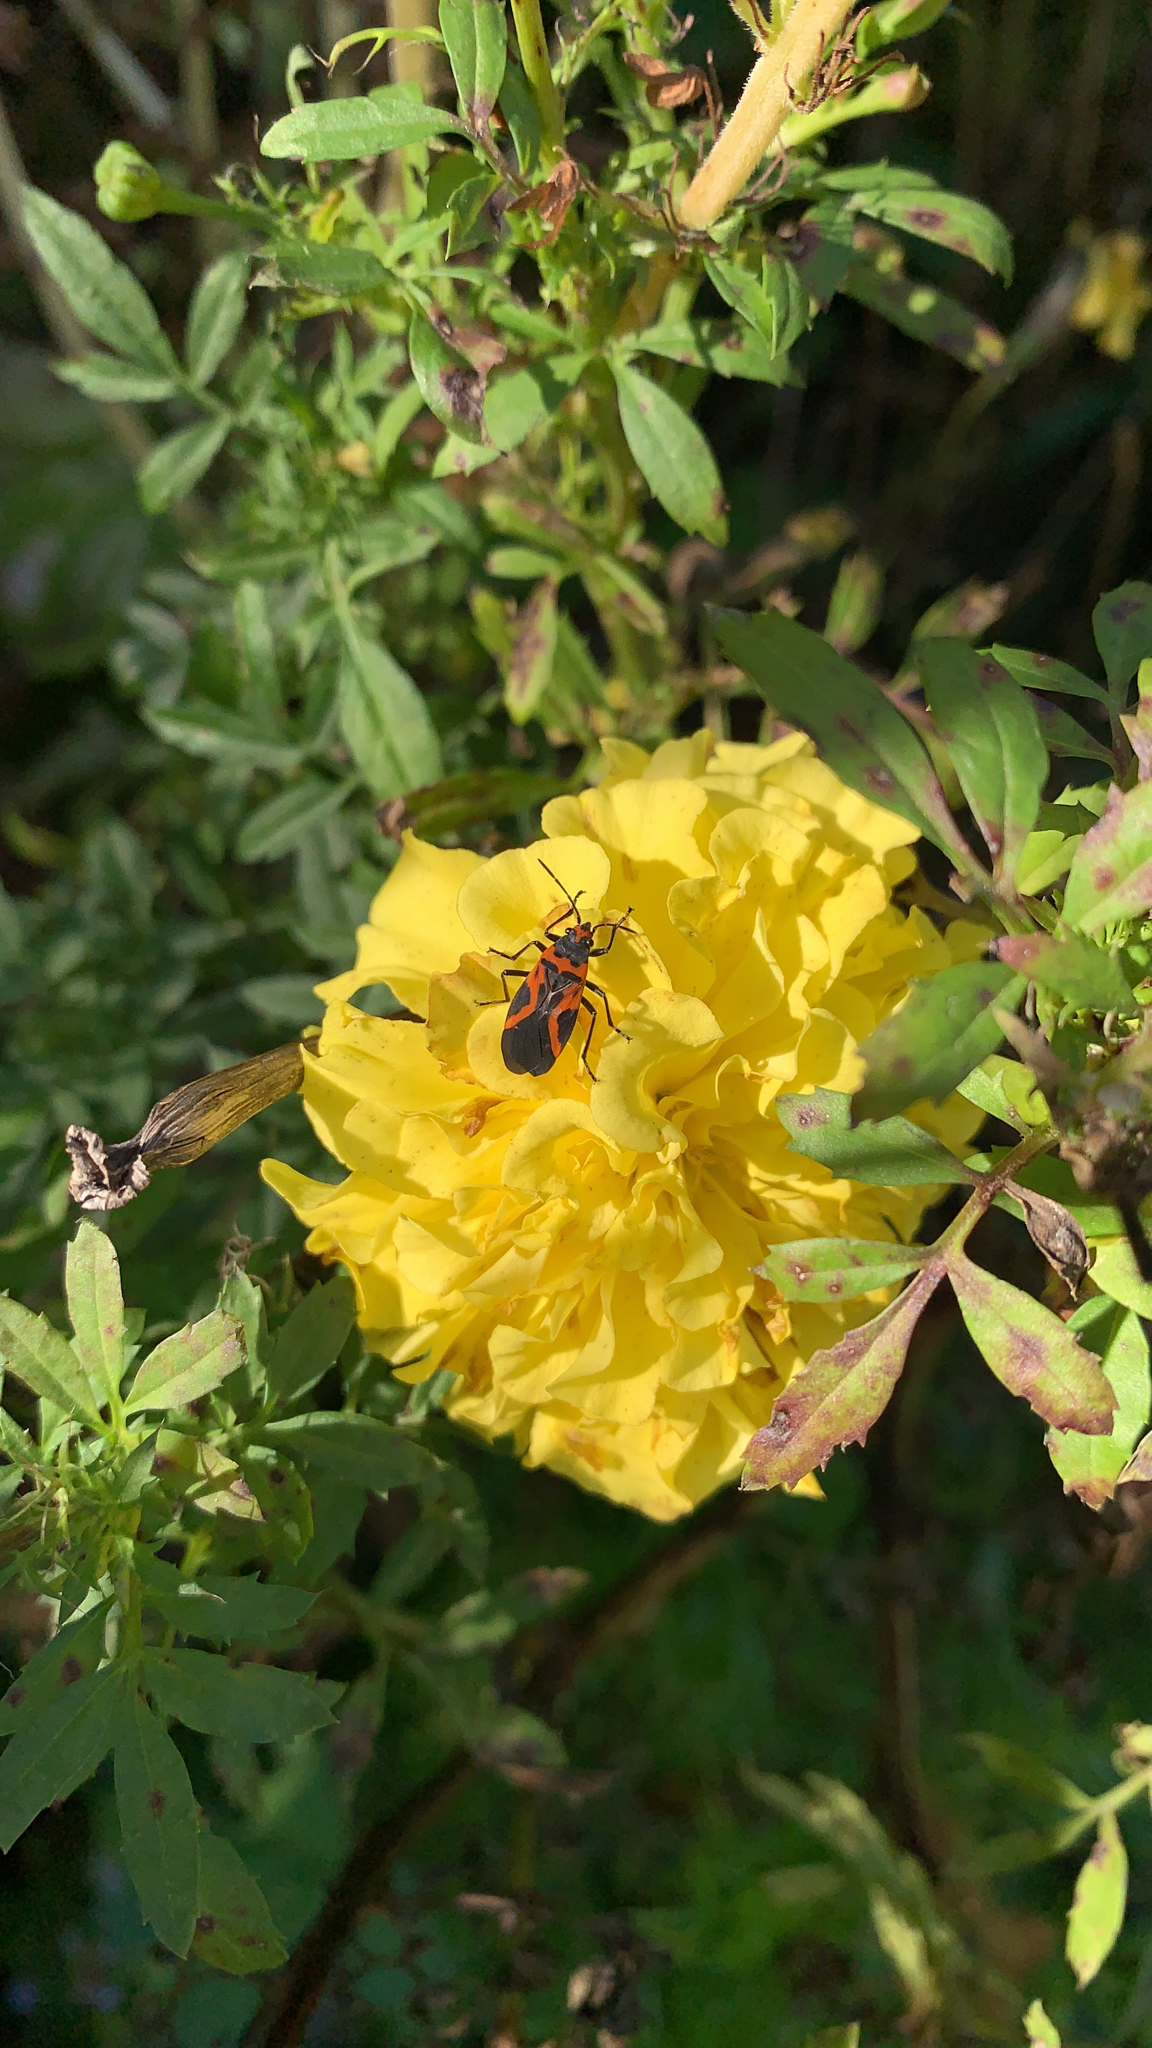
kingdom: Animalia
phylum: Arthropoda
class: Insecta
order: Hemiptera
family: Lygaeidae
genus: Lygaeus
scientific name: Lygaeus turcicus
